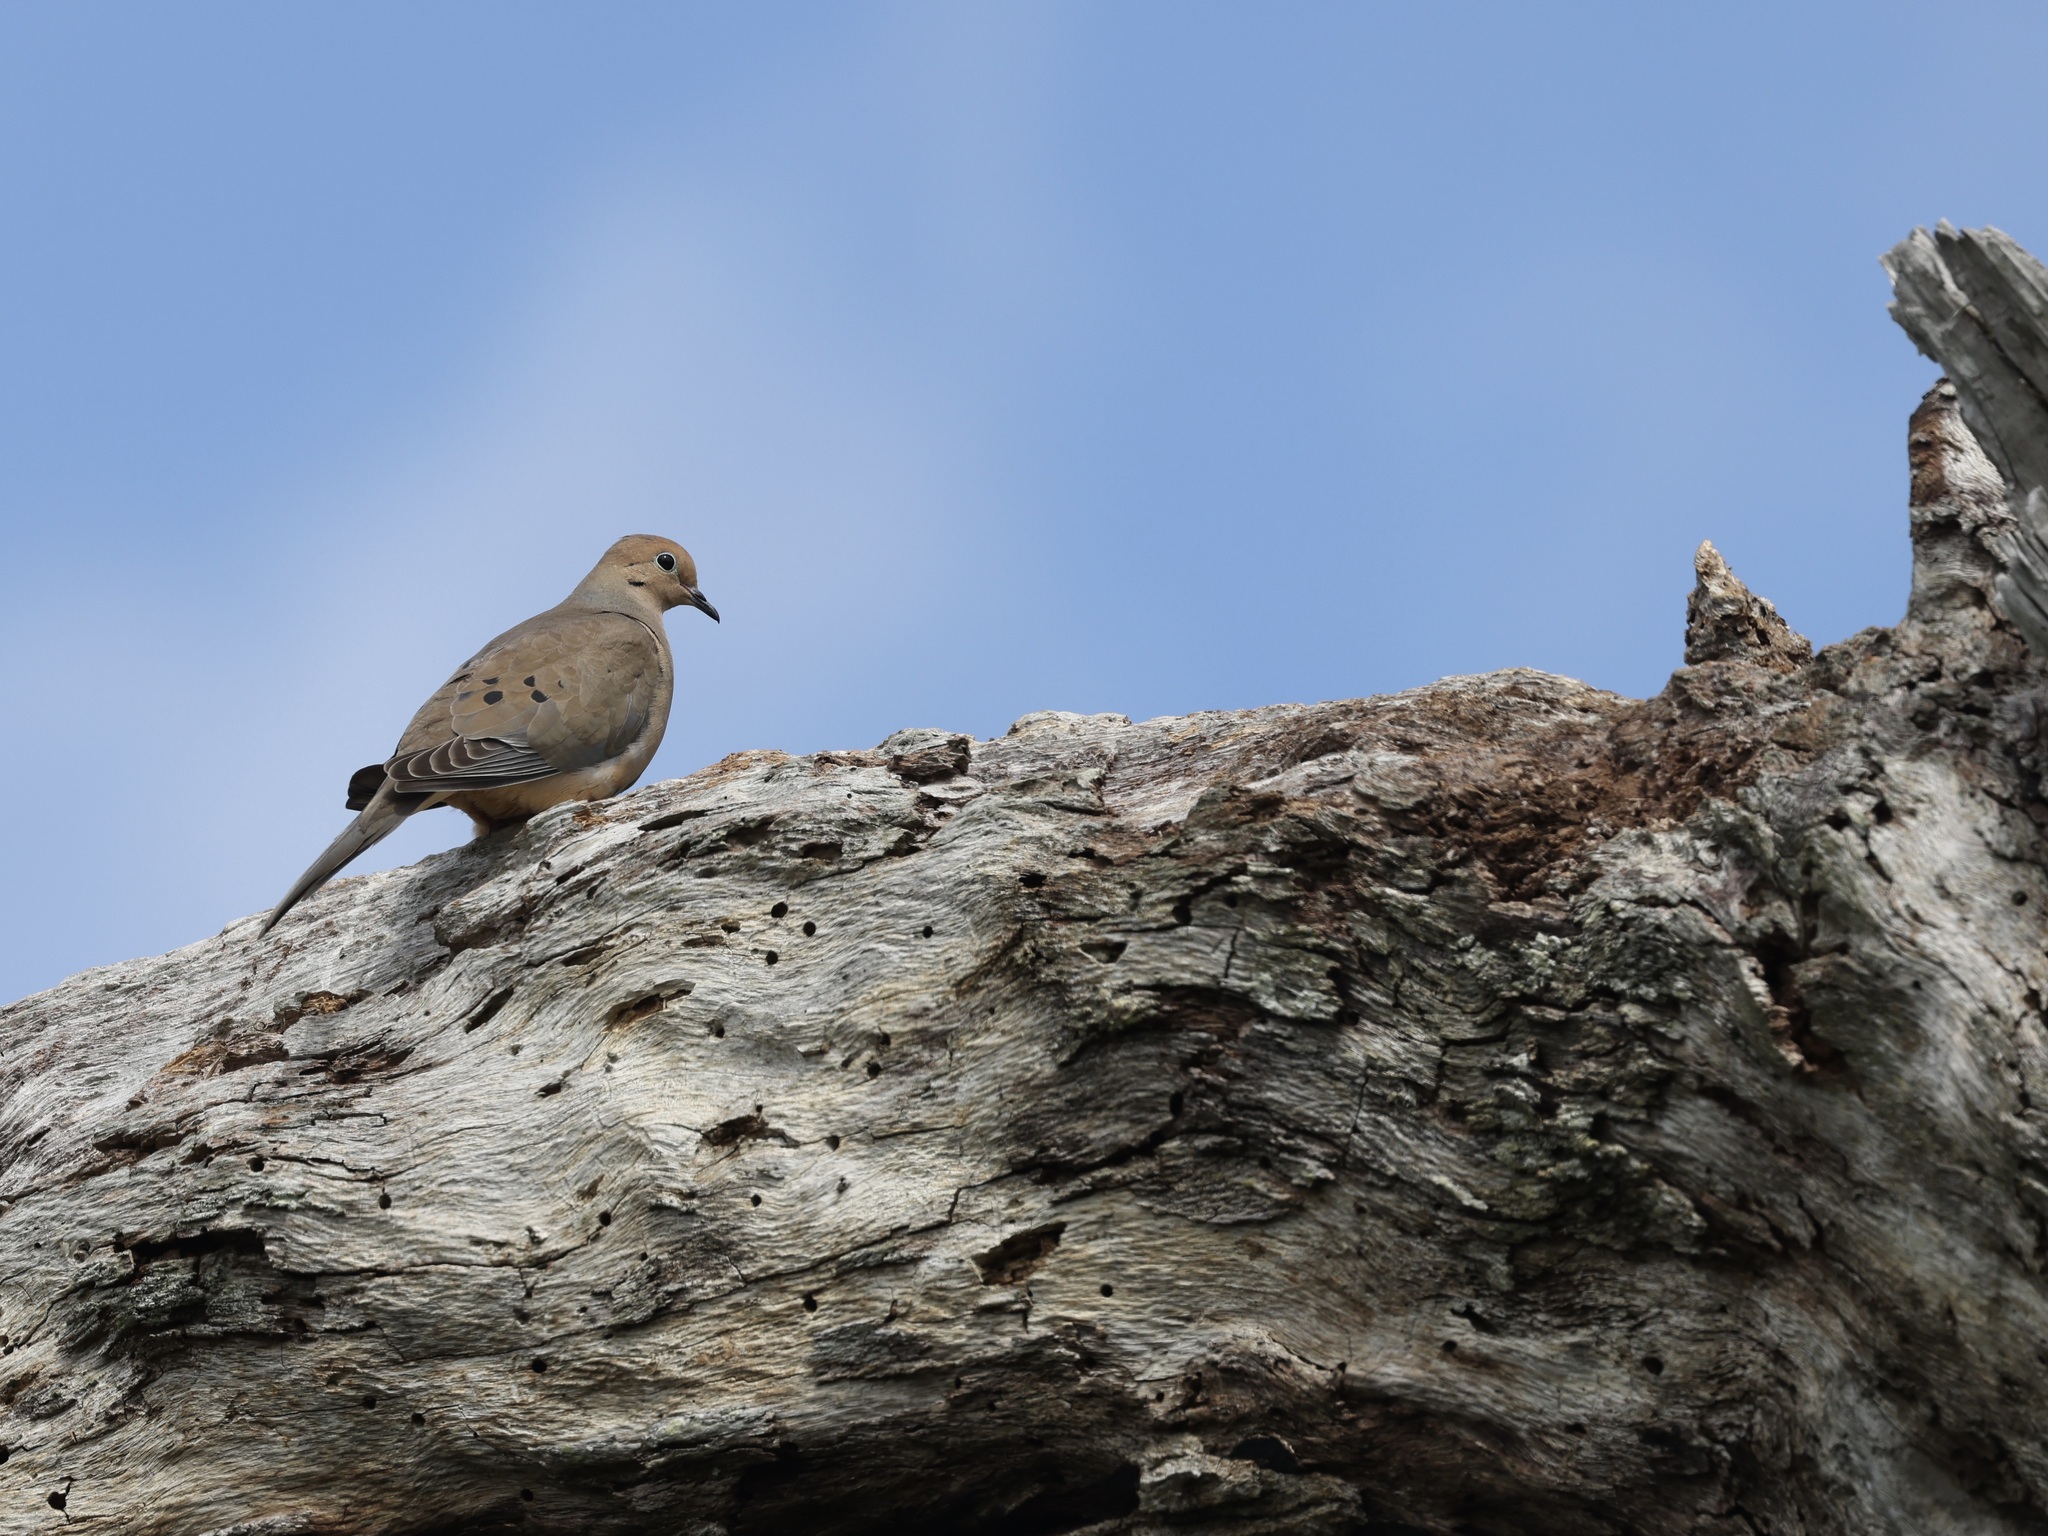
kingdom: Animalia
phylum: Chordata
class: Aves
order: Columbiformes
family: Columbidae
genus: Zenaida
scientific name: Zenaida macroura
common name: Mourning dove
